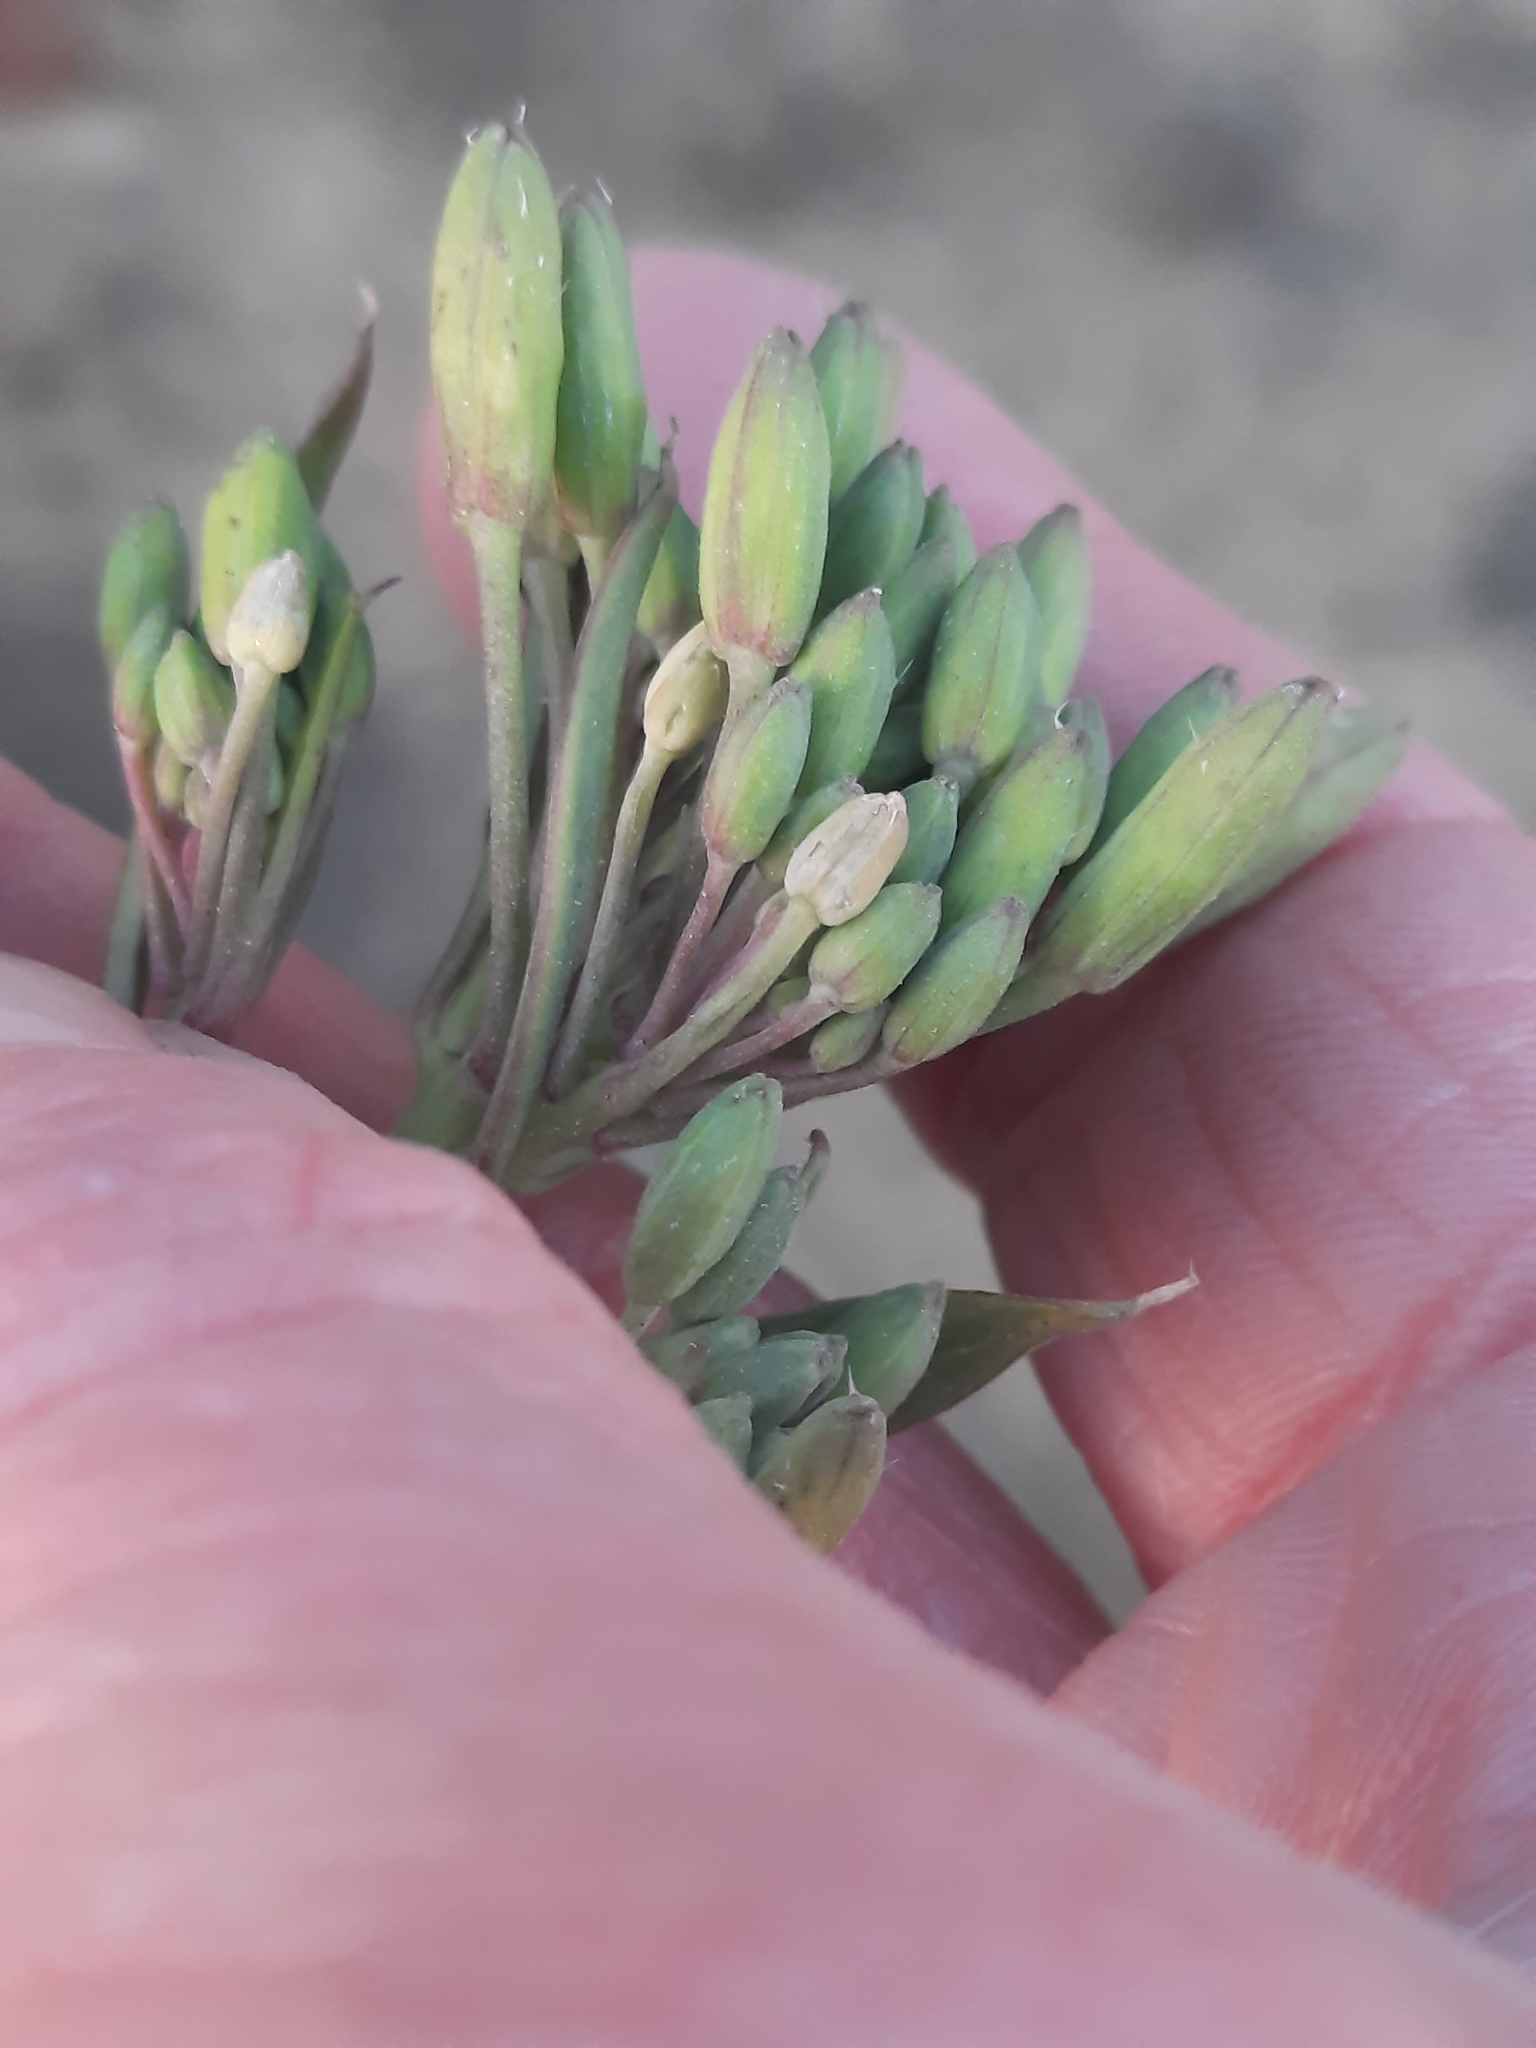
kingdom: Plantae
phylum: Tracheophyta
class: Magnoliopsida
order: Brassicales
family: Brassicaceae
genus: Raphanus
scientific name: Raphanus sativus
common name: Cultivated radish
